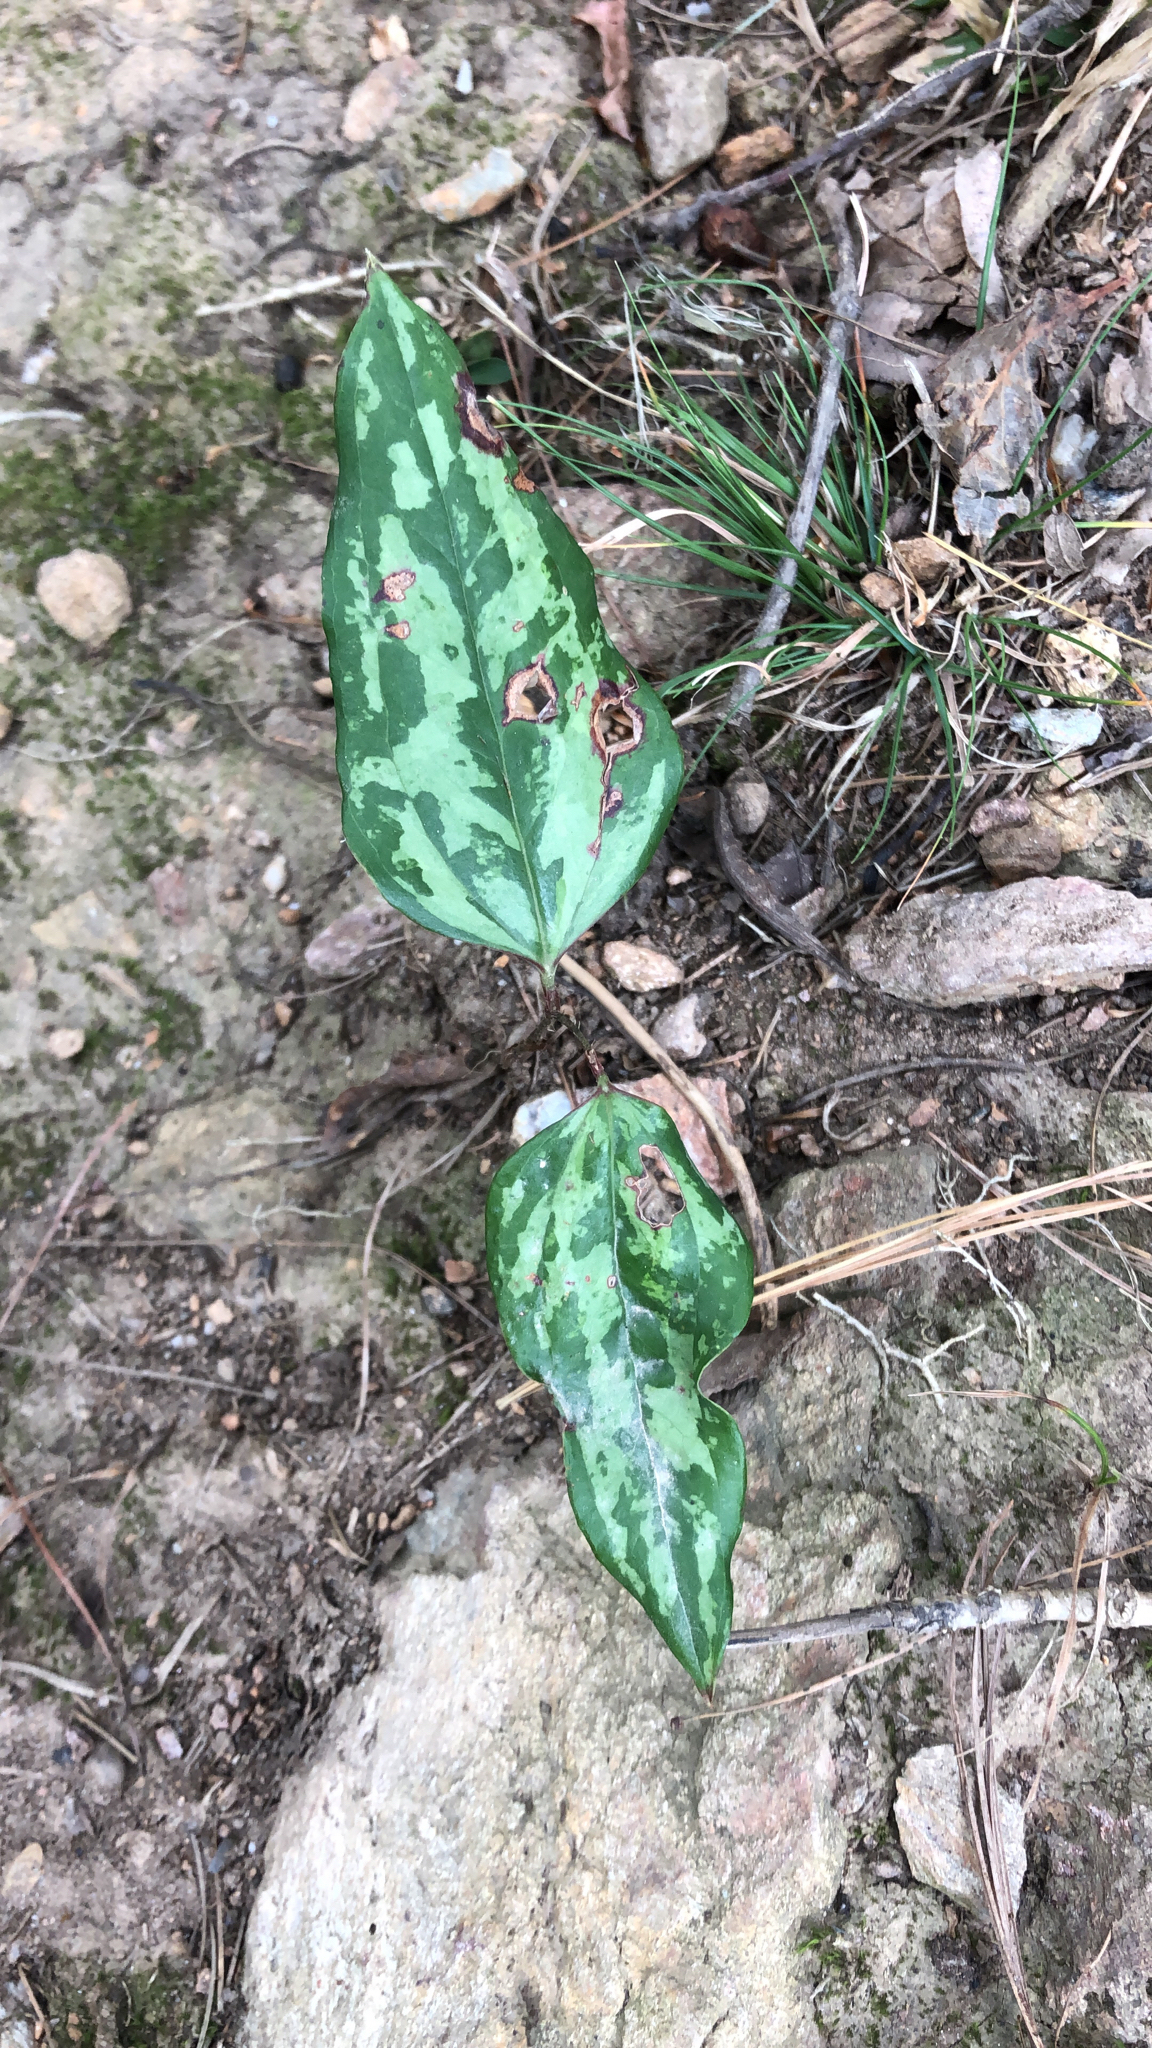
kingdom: Plantae
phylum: Tracheophyta
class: Liliopsida
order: Liliales
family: Smilacaceae
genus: Smilax
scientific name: Smilax glauca
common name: Cat greenbrier
